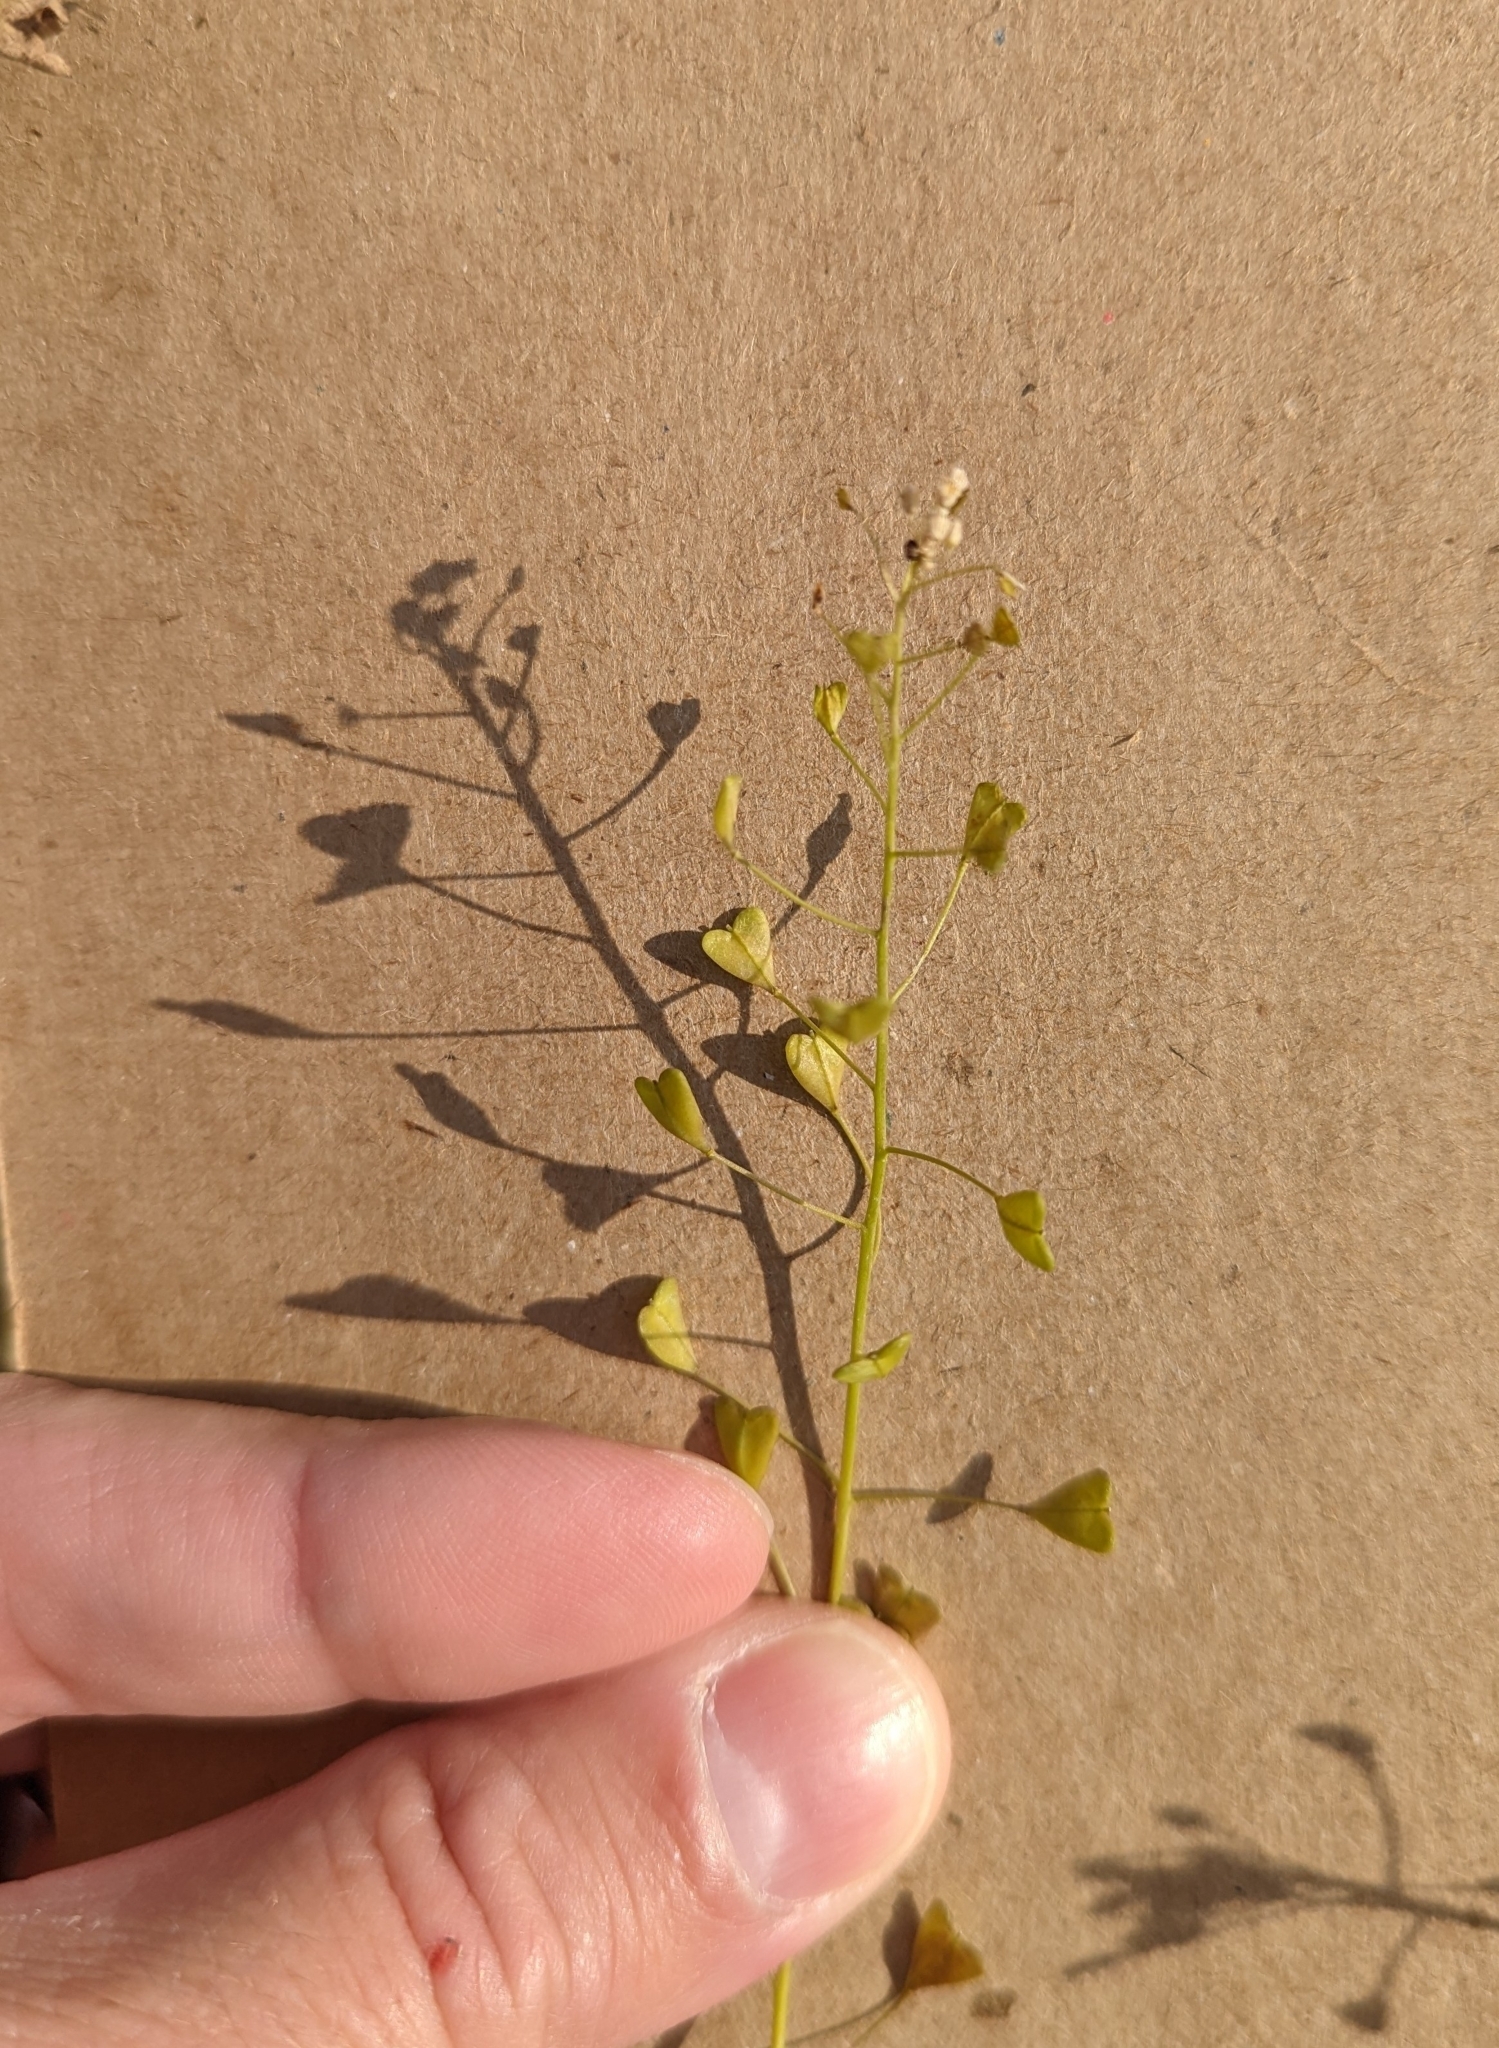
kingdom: Plantae
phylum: Tracheophyta
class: Magnoliopsida
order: Brassicales
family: Brassicaceae
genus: Capsella
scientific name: Capsella bursa-pastoris
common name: Shepherd's purse
